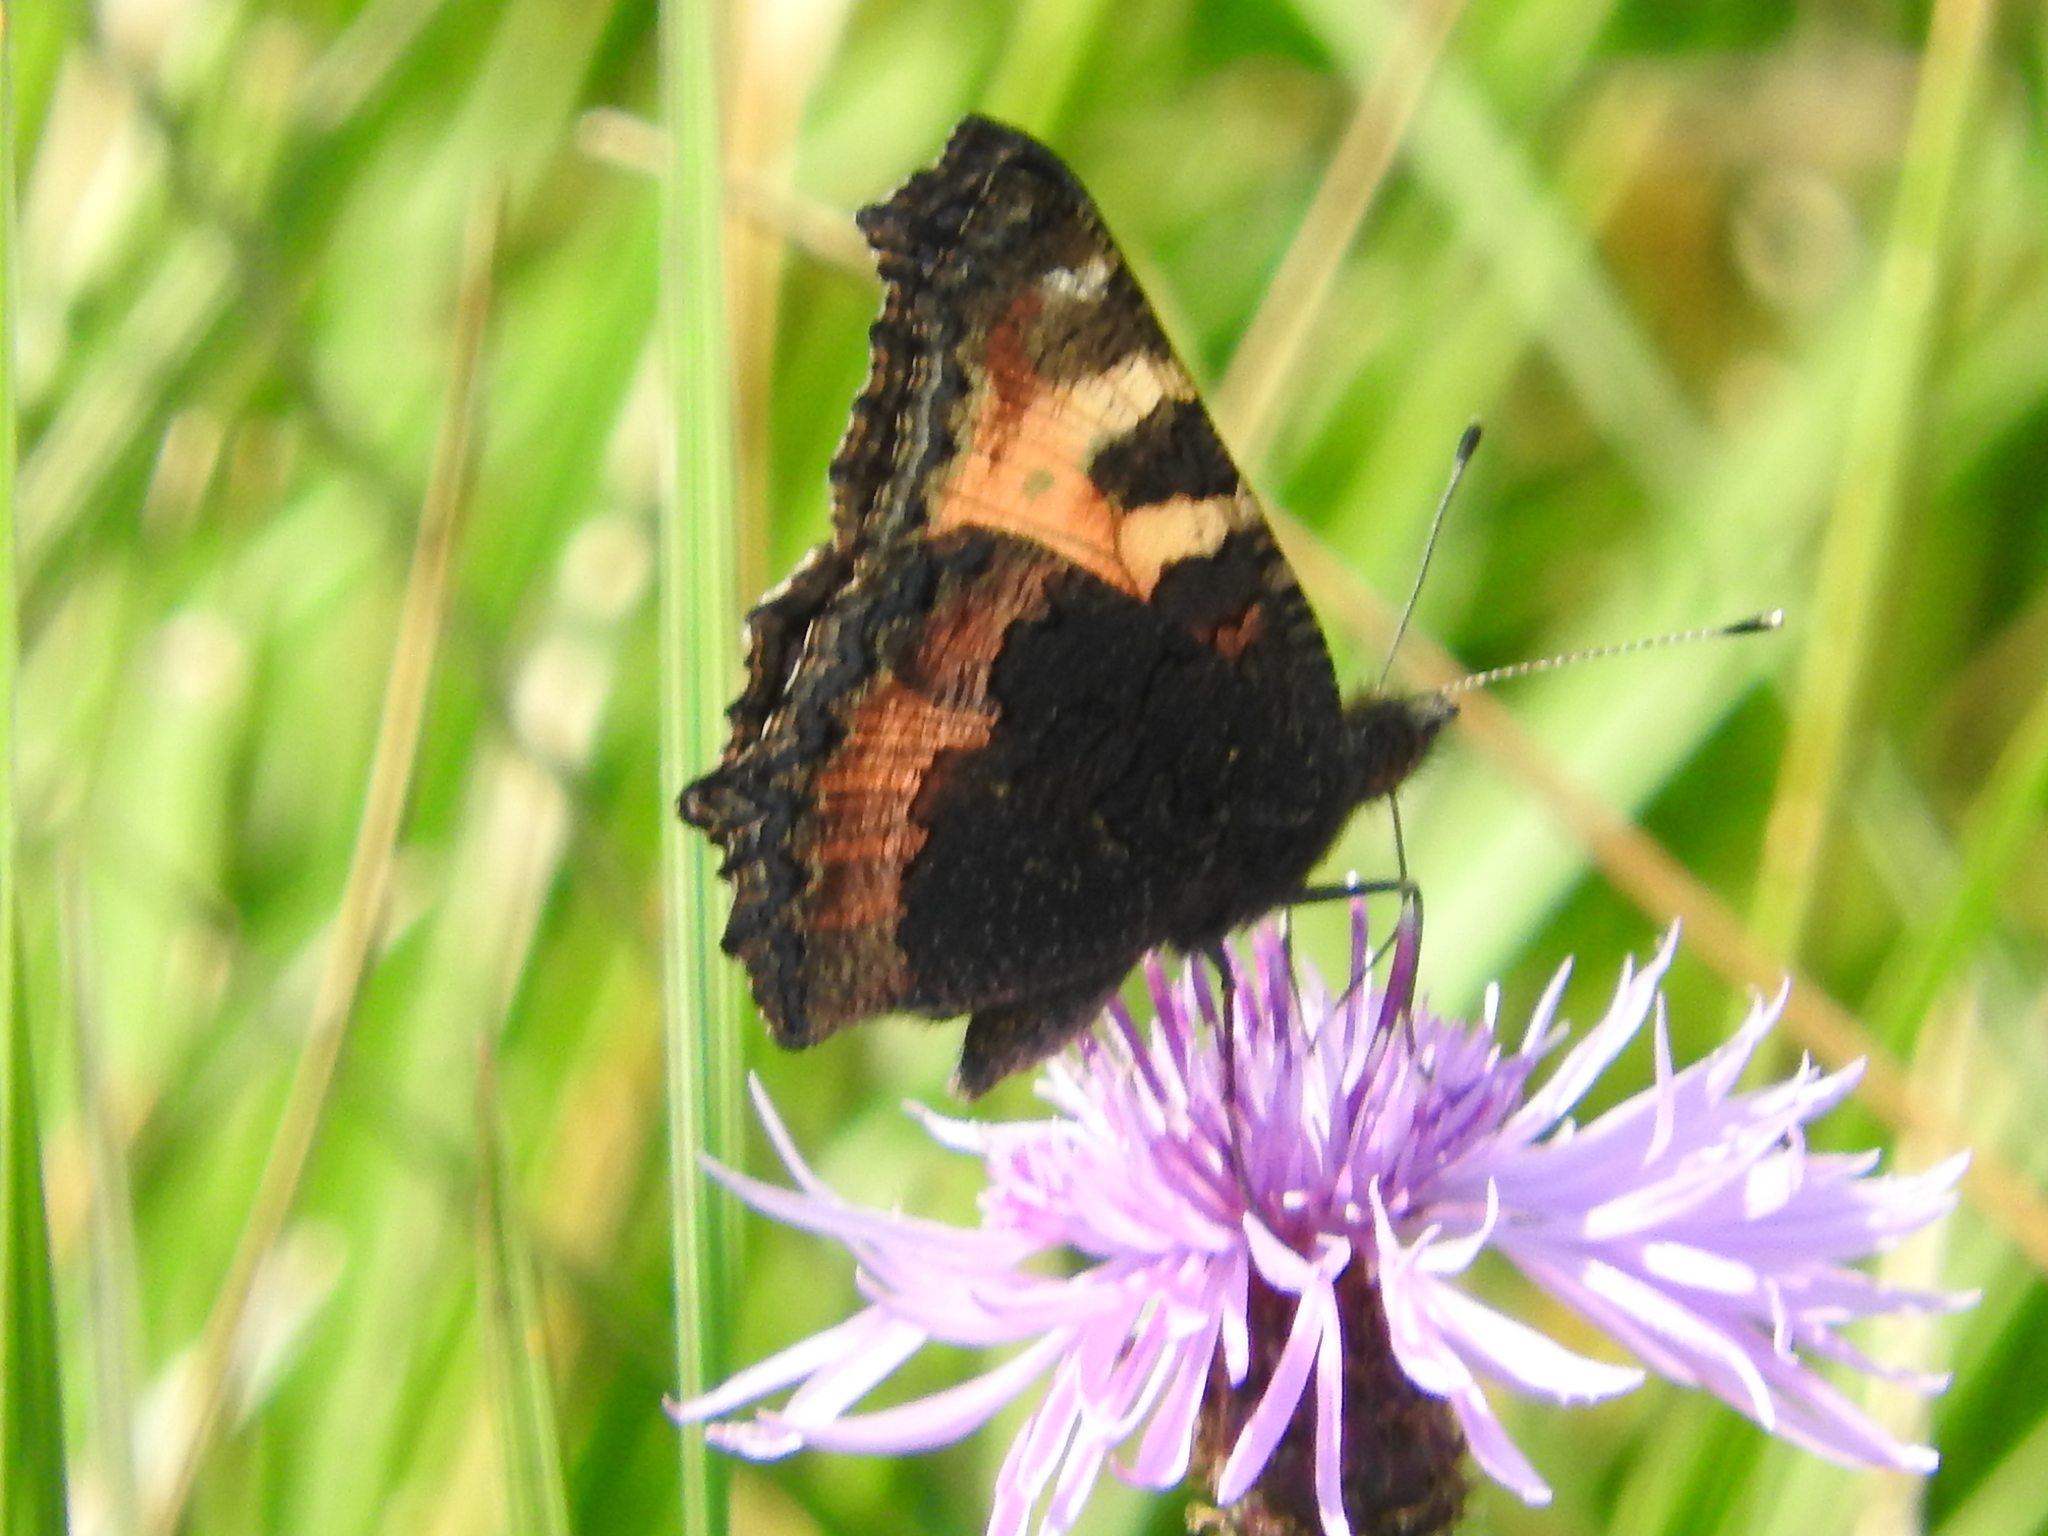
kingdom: Animalia
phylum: Arthropoda
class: Insecta
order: Lepidoptera
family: Nymphalidae
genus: Aglais
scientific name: Aglais urticae
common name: Small tortoiseshell
